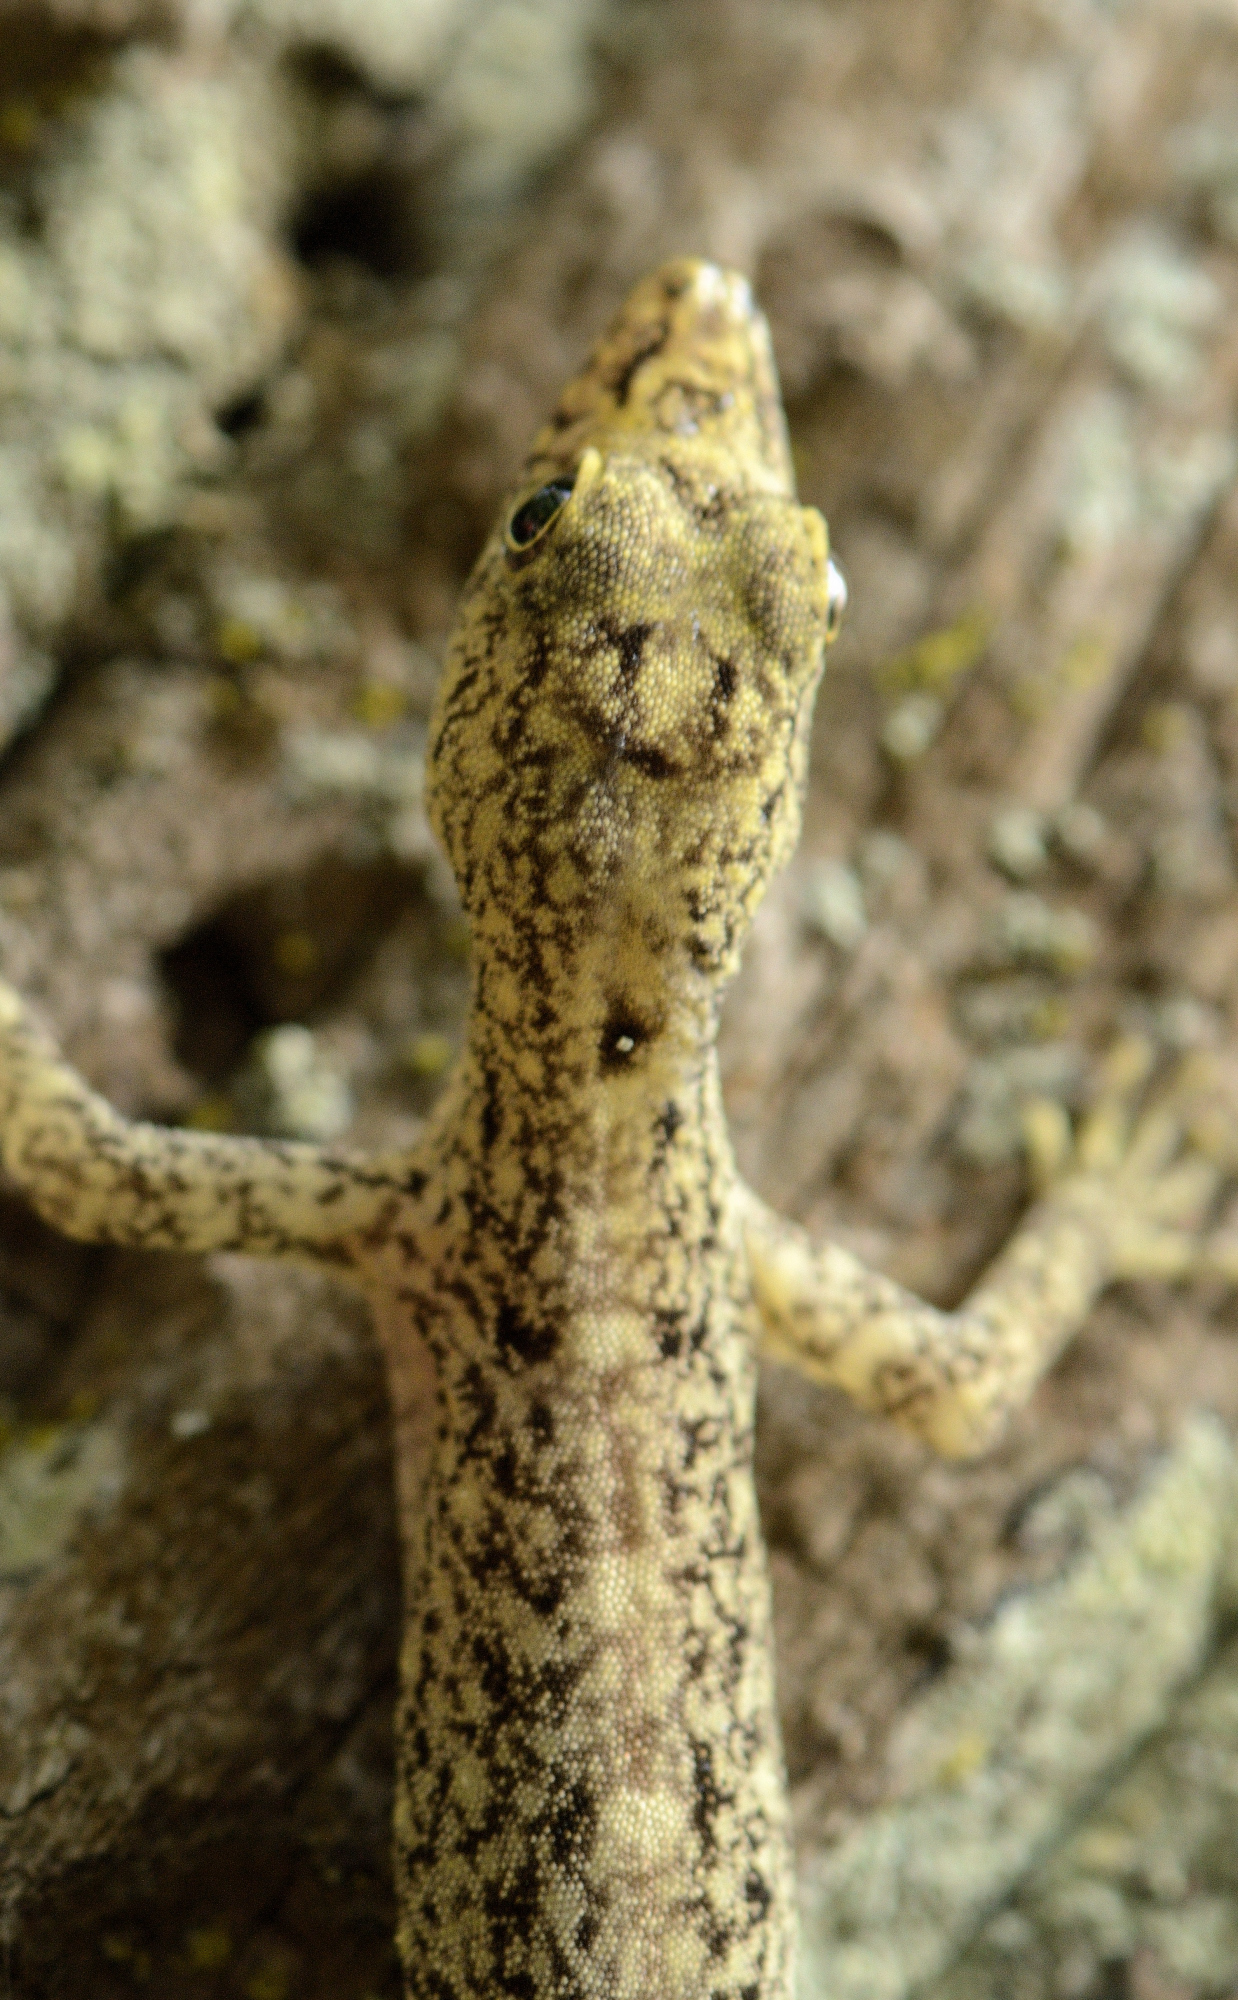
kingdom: Animalia
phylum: Chordata
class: Squamata
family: Gekkonidae
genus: Cnemaspis
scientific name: Cnemaspis littoralis
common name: Coastal day gecko
